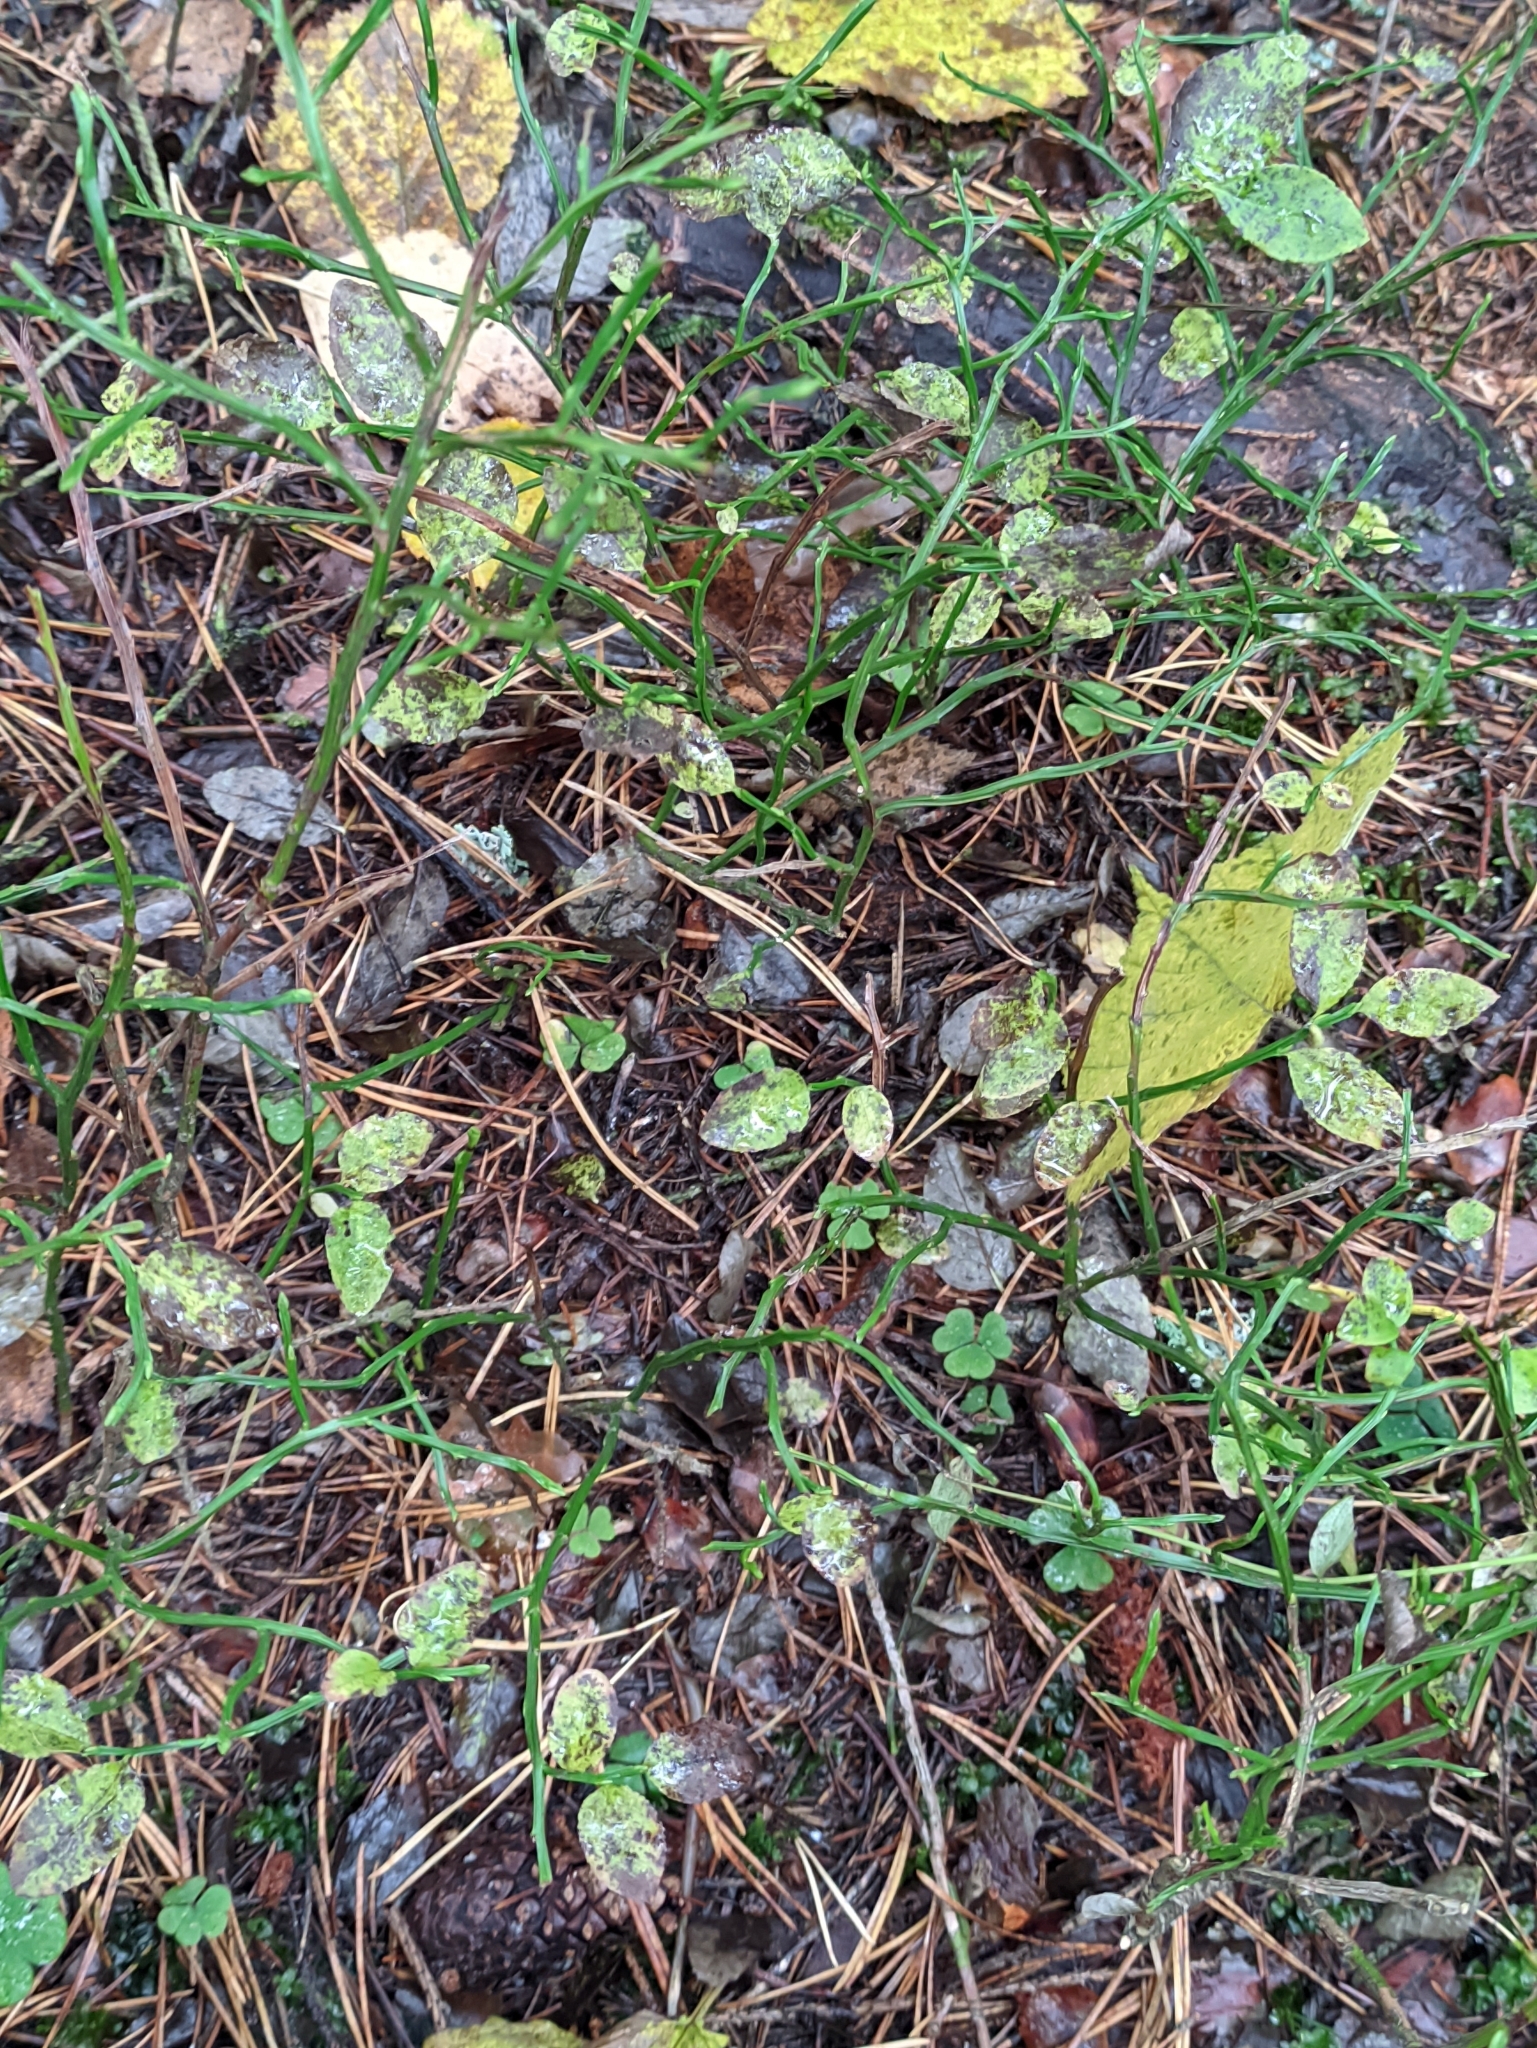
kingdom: Plantae
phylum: Tracheophyta
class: Magnoliopsida
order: Ericales
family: Ericaceae
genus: Vaccinium
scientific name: Vaccinium myrtillus
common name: Bilberry
